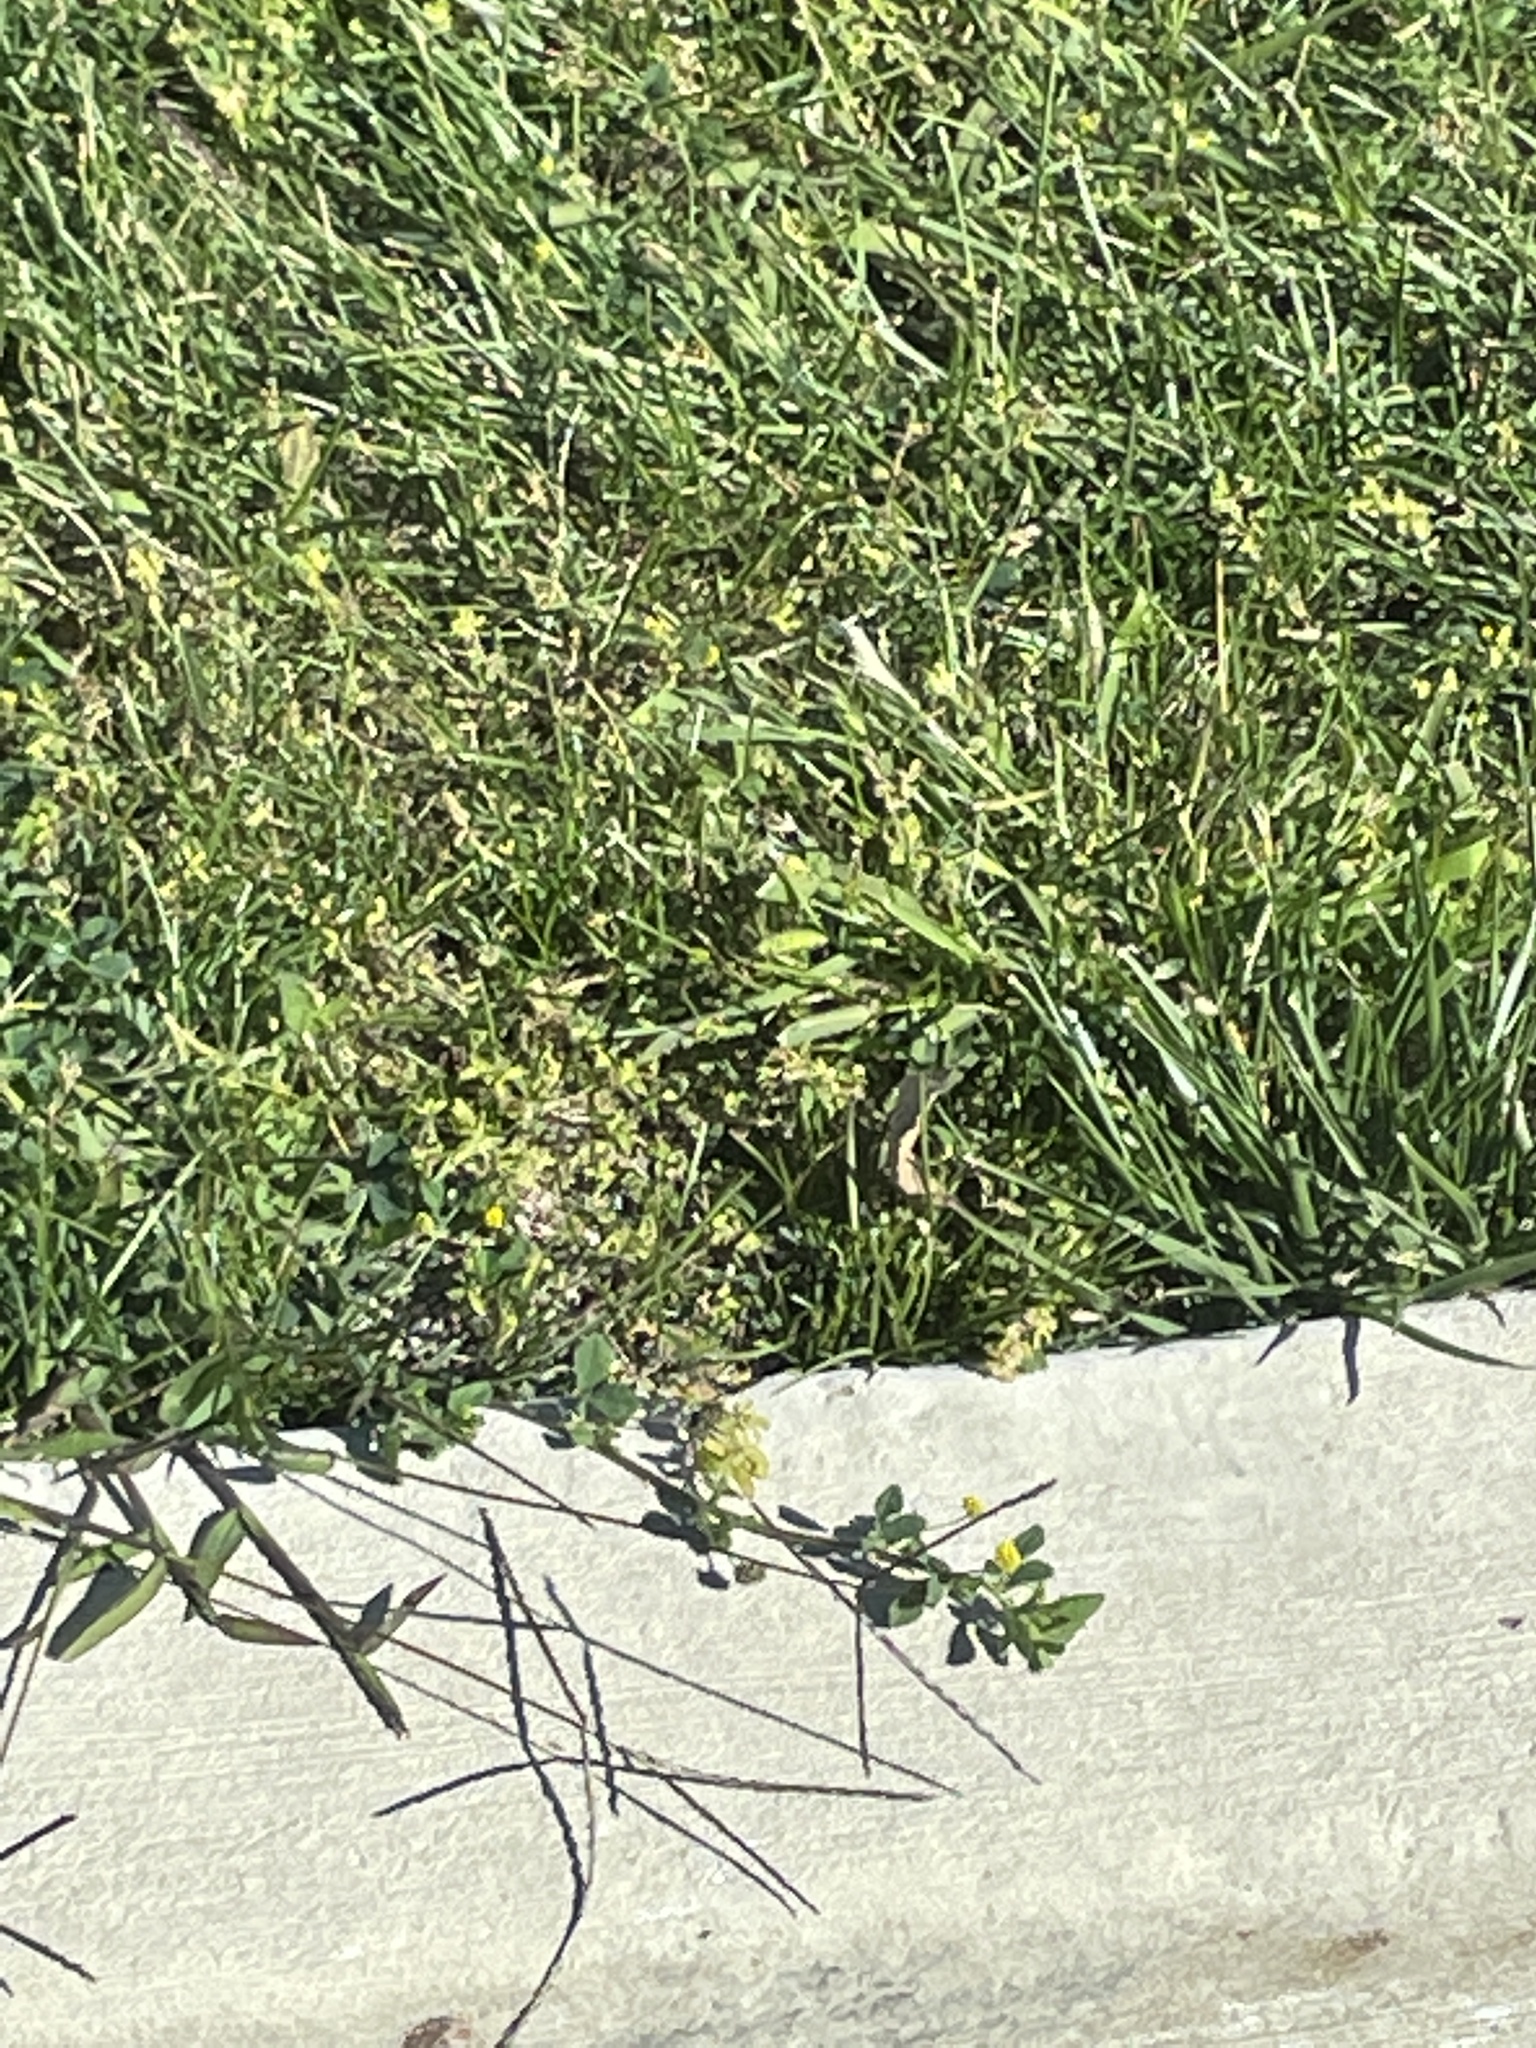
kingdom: Plantae
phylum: Tracheophyta
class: Magnoliopsida
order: Fabales
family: Fabaceae
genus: Medicago
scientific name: Medicago lupulina
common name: Black medick
